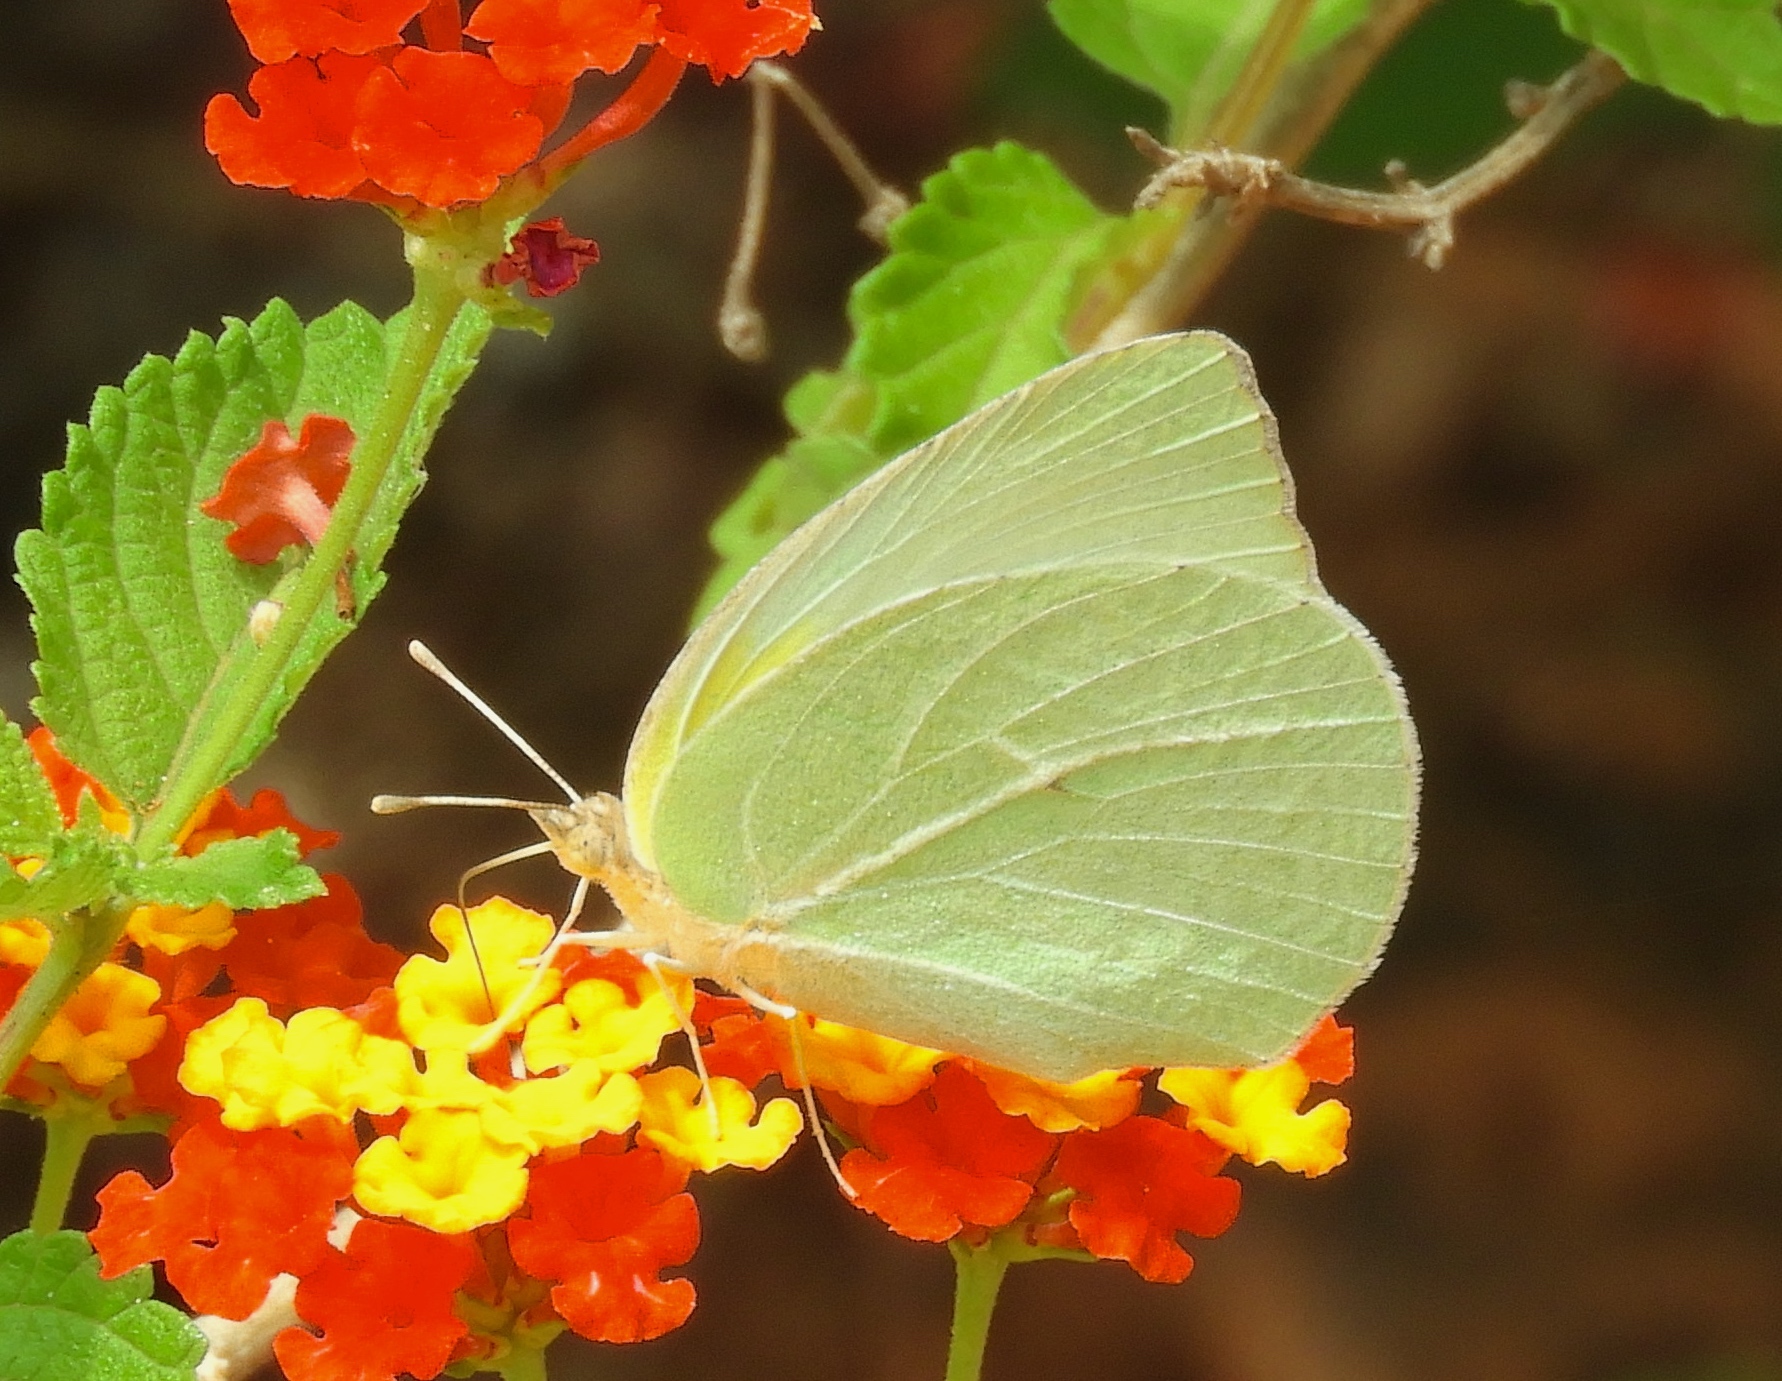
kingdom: Animalia
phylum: Arthropoda
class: Insecta
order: Lepidoptera
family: Pieridae
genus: Kricogonia
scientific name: Kricogonia lyside
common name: Guayacan sulphur,
